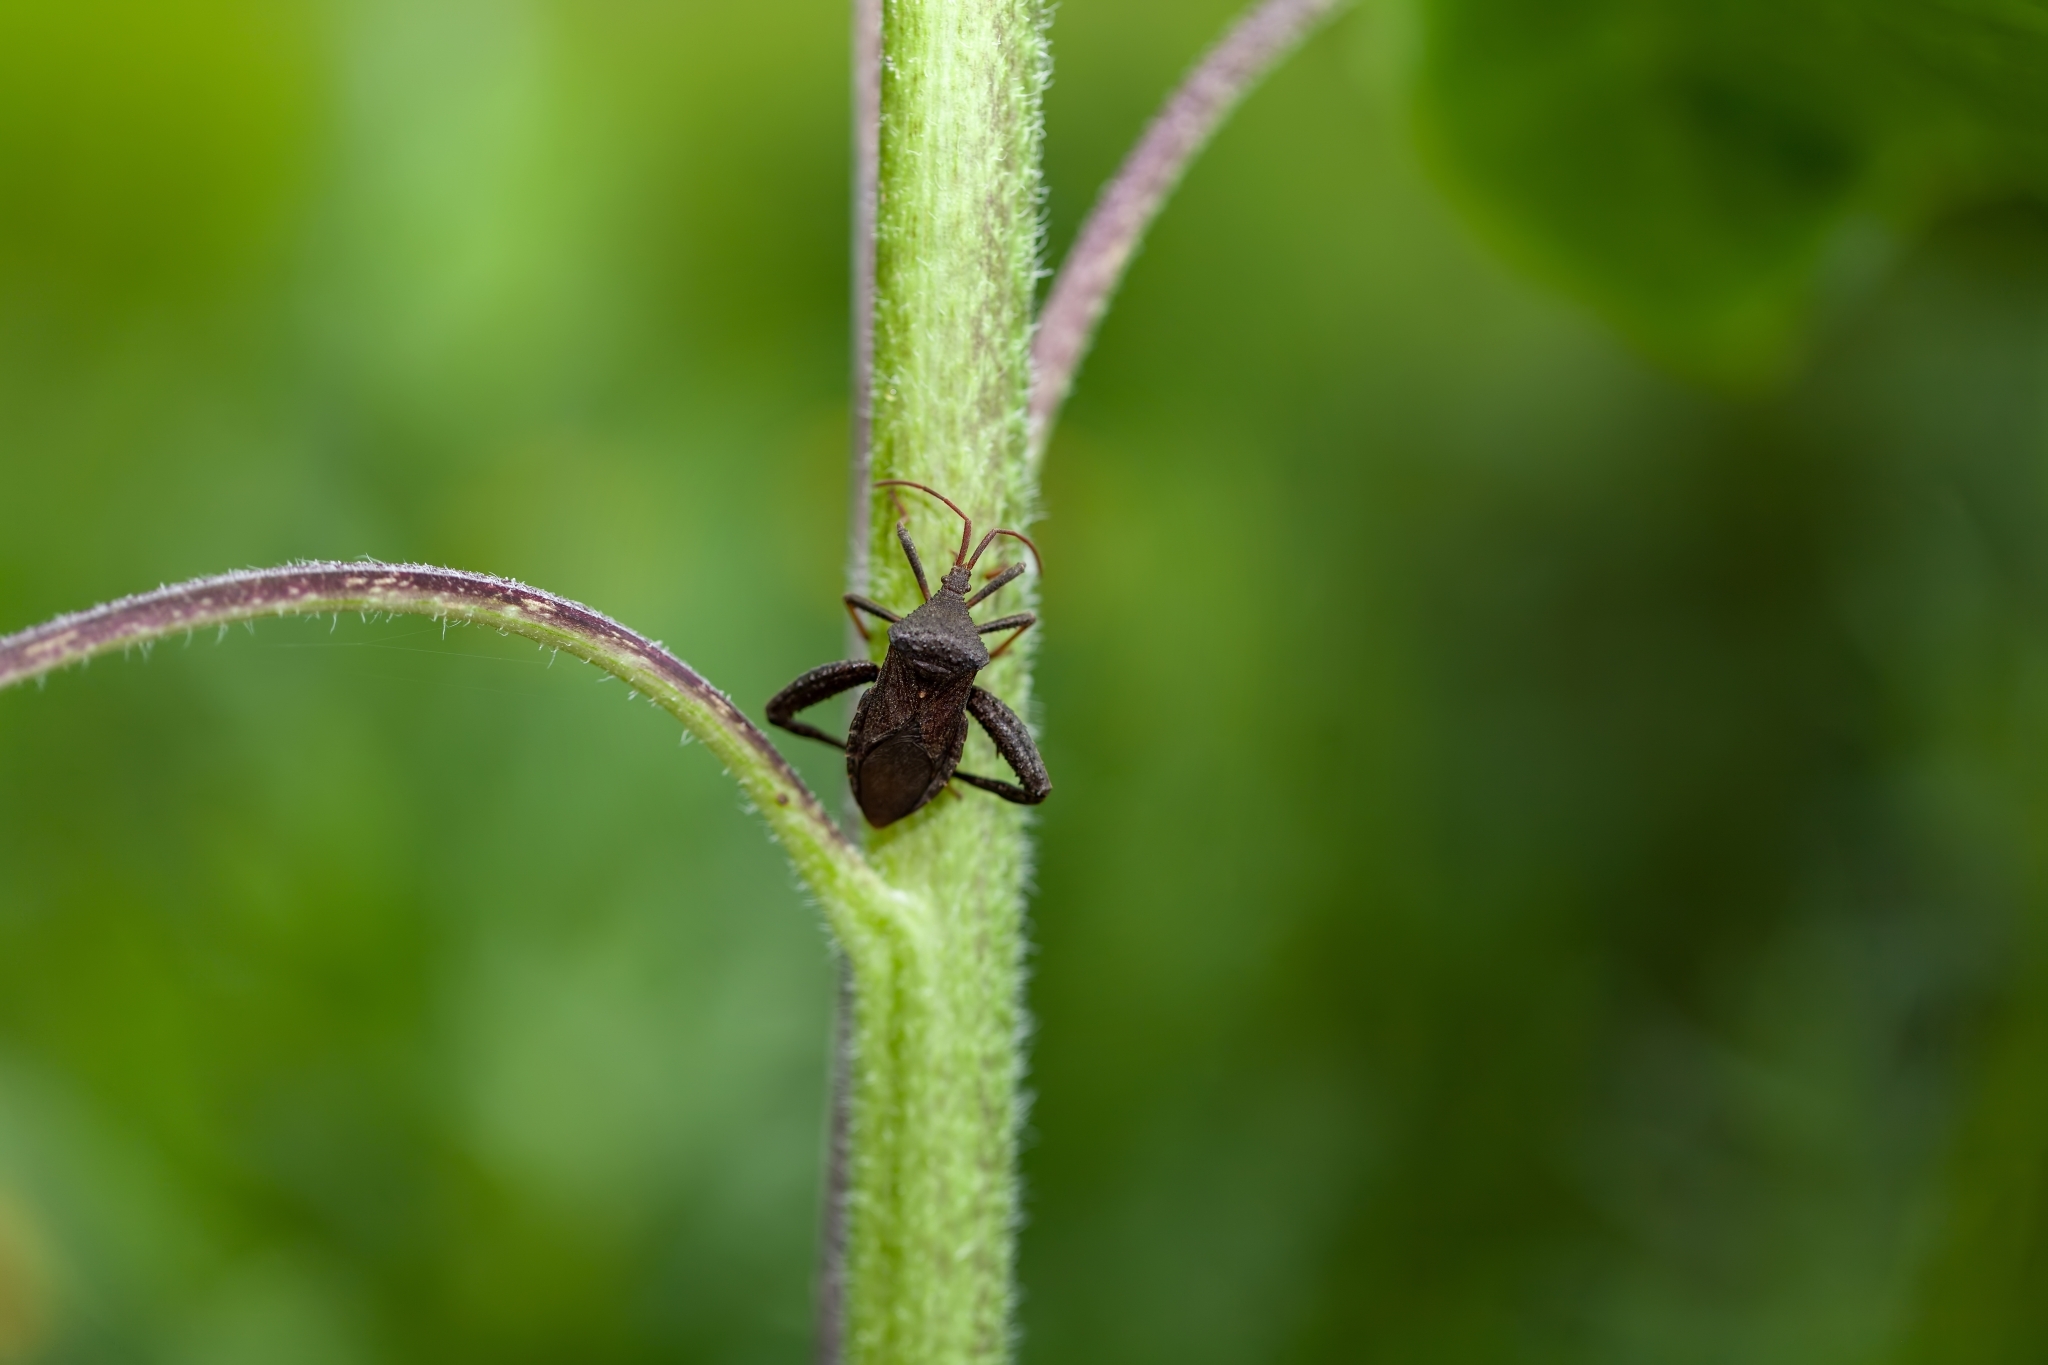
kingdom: Animalia
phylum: Arthropoda
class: Insecta
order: Hemiptera
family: Coreidae
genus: Acanthocephala
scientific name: Acanthocephala femorata
